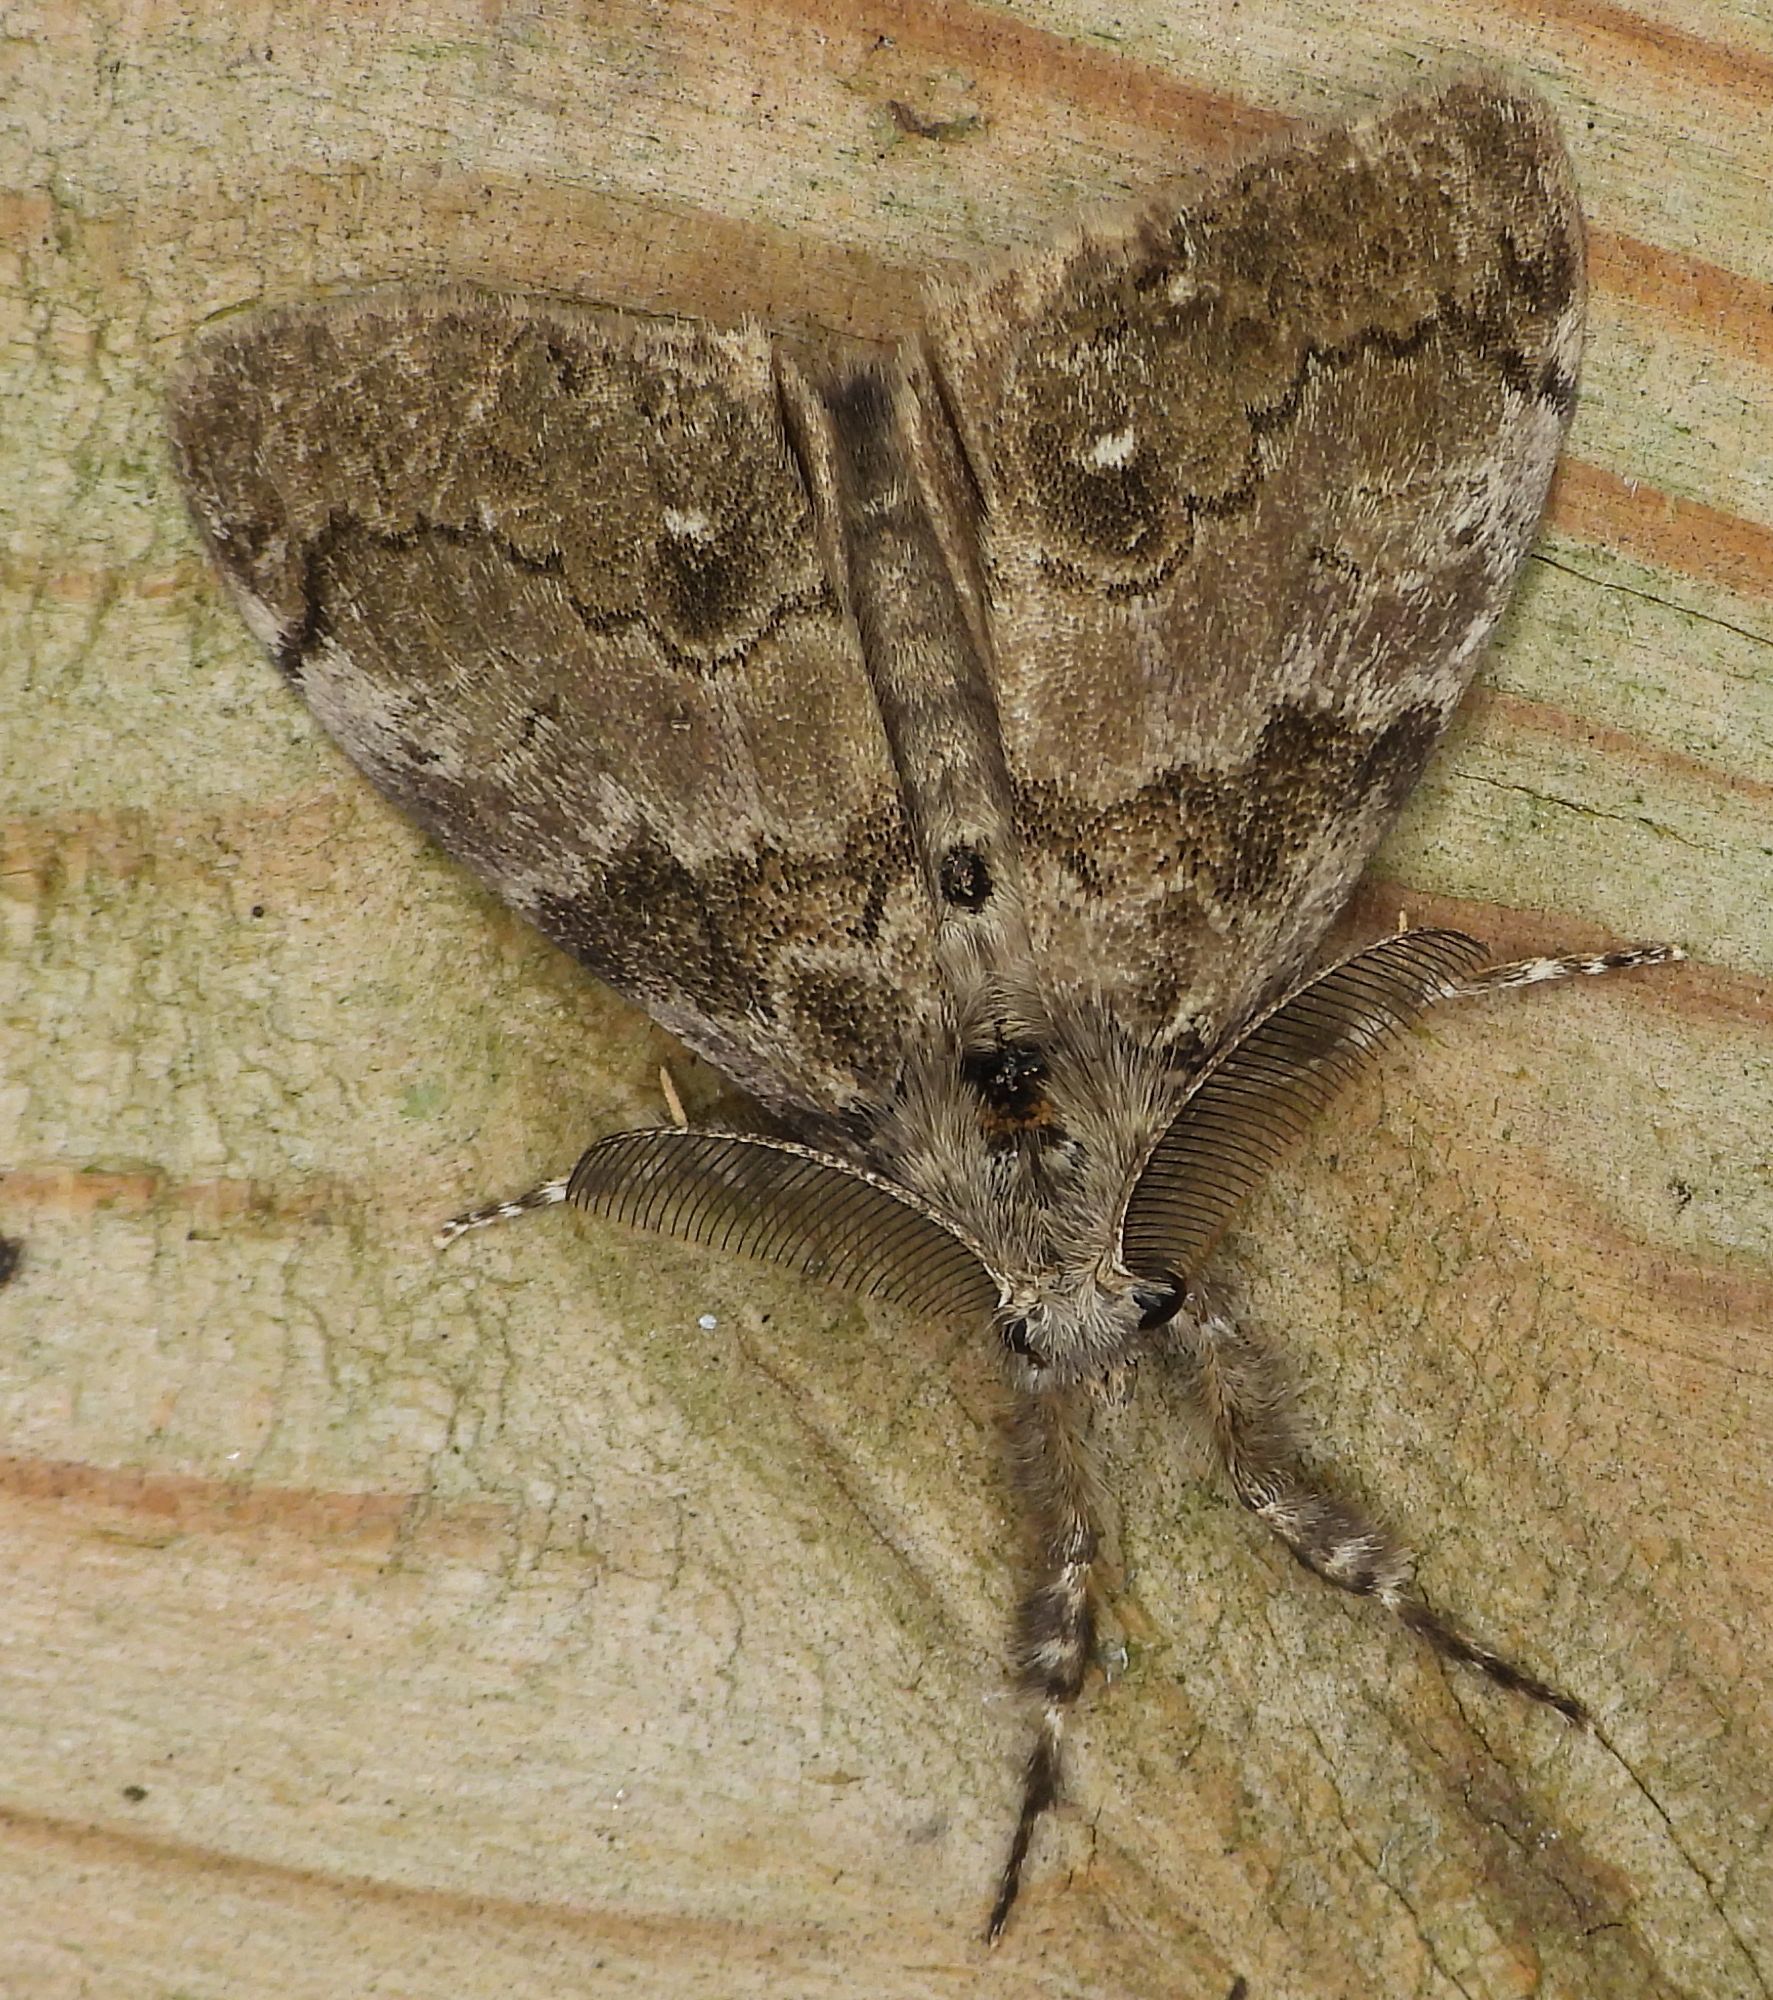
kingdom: Animalia
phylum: Arthropoda
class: Insecta
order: Lepidoptera
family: Erebidae
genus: Orgyia
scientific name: Orgyia leucostigma
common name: White-marked tussock moth
